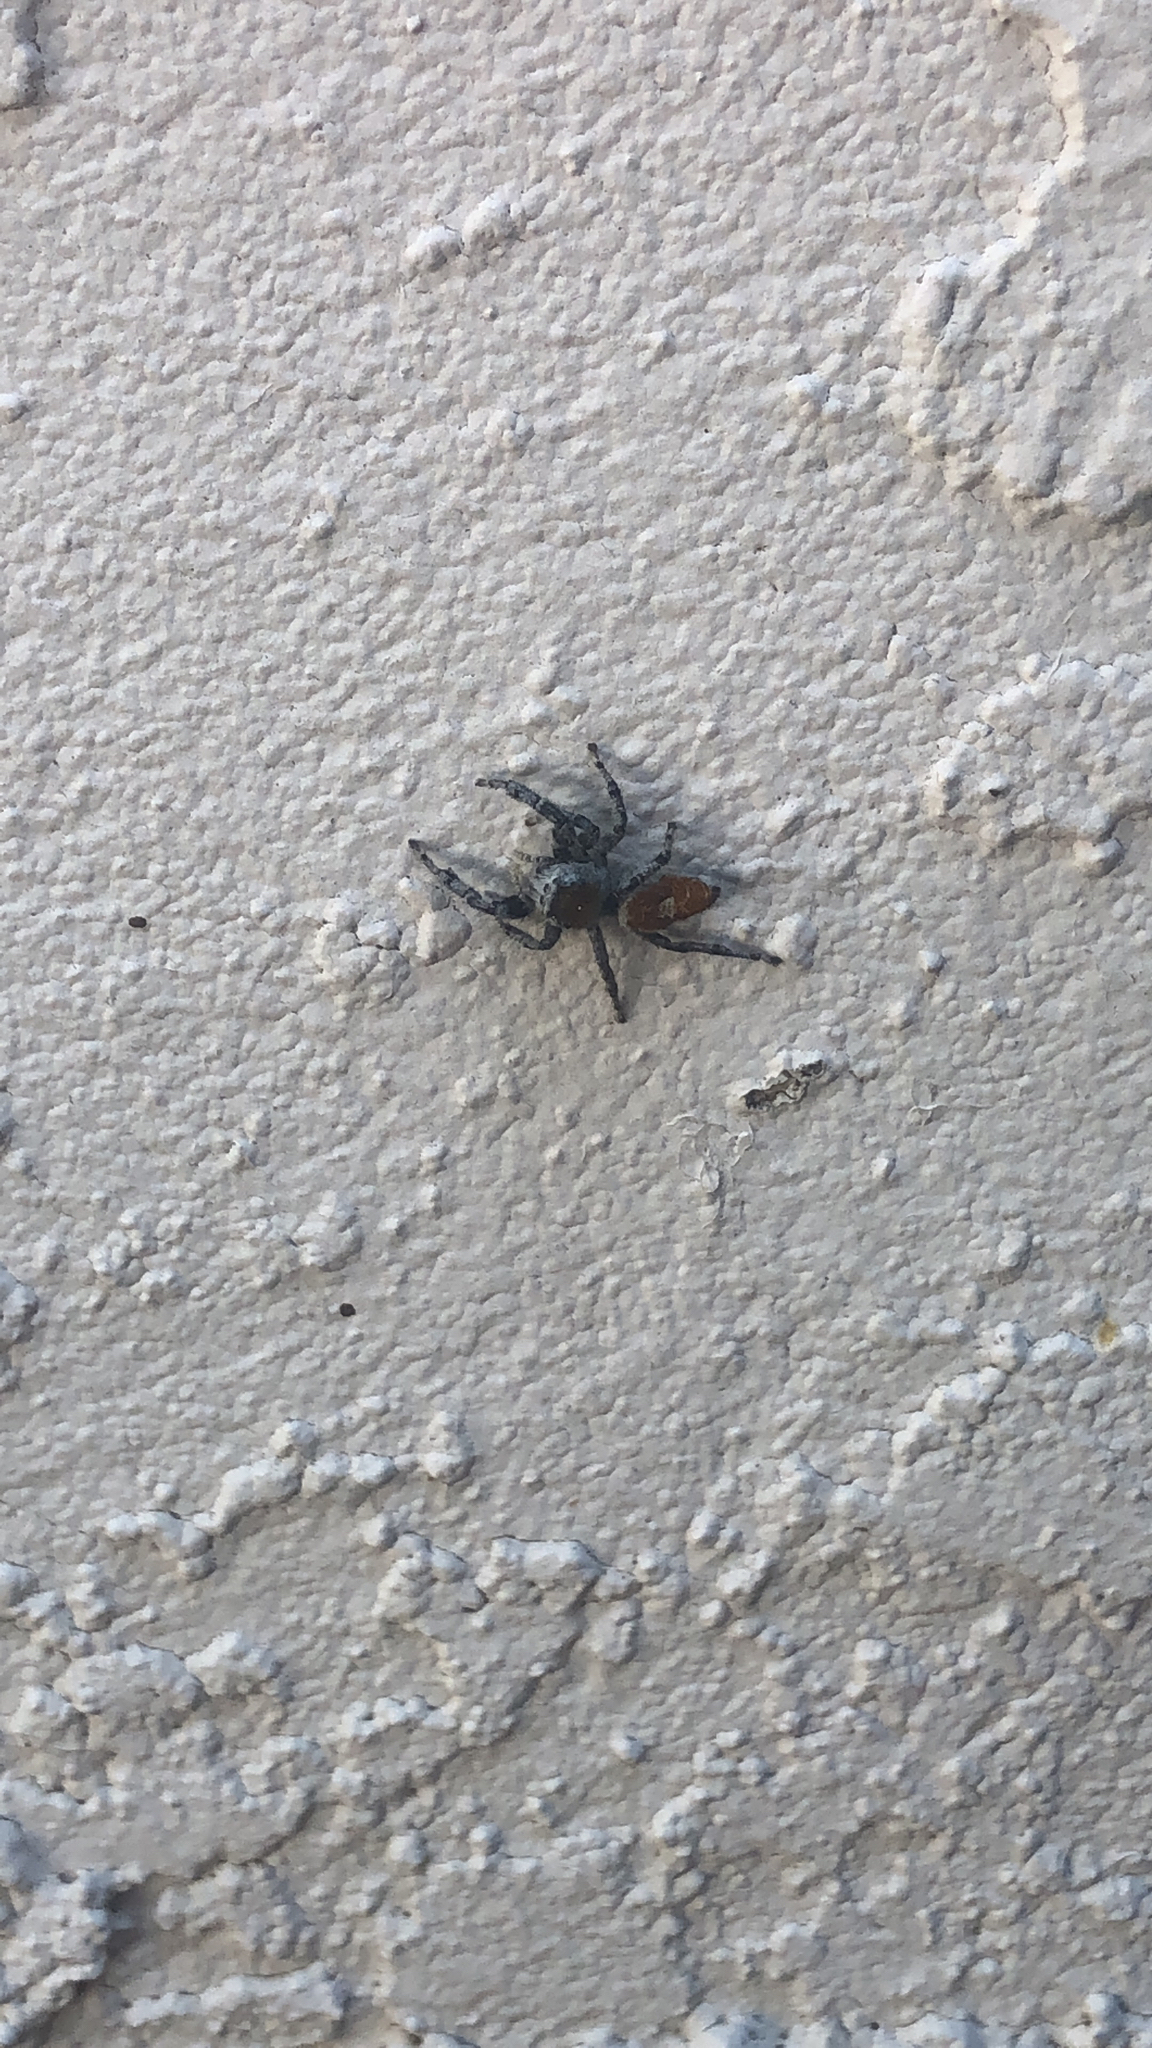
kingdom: Animalia
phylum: Arthropoda
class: Arachnida
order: Araneae
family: Salticidae
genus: Phidippus
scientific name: Phidippus adumbratus
